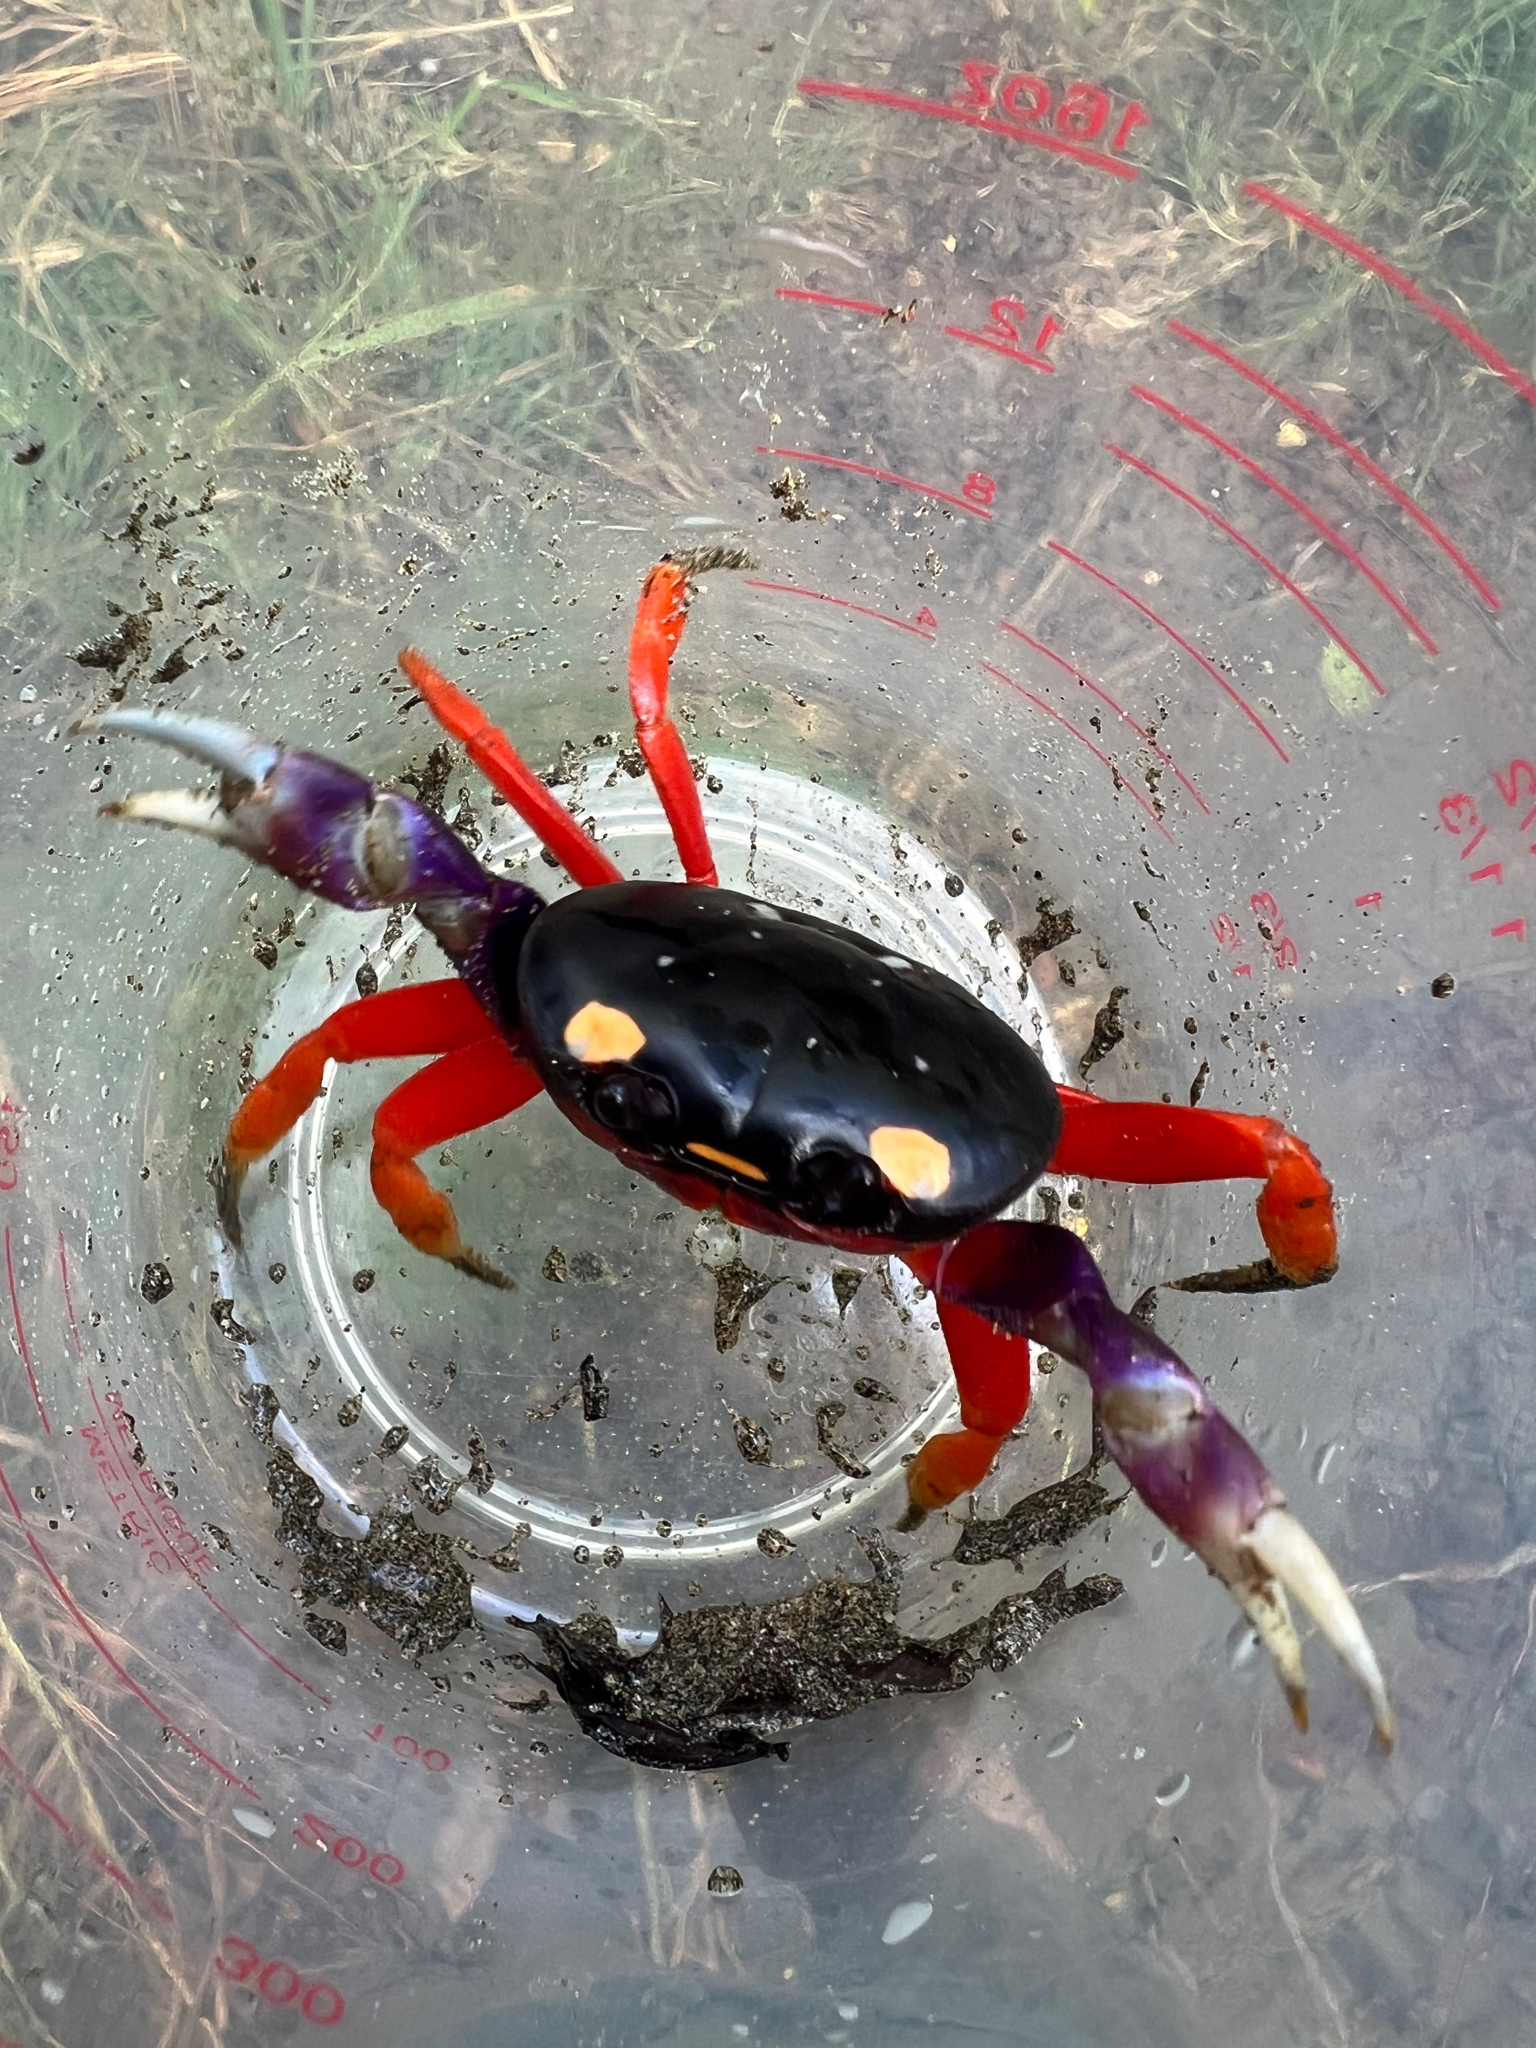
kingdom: Animalia
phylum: Arthropoda
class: Malacostraca
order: Decapoda
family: Gecarcinidae
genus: Gecarcinus
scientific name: Gecarcinus quadratus
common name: Halloween crab
